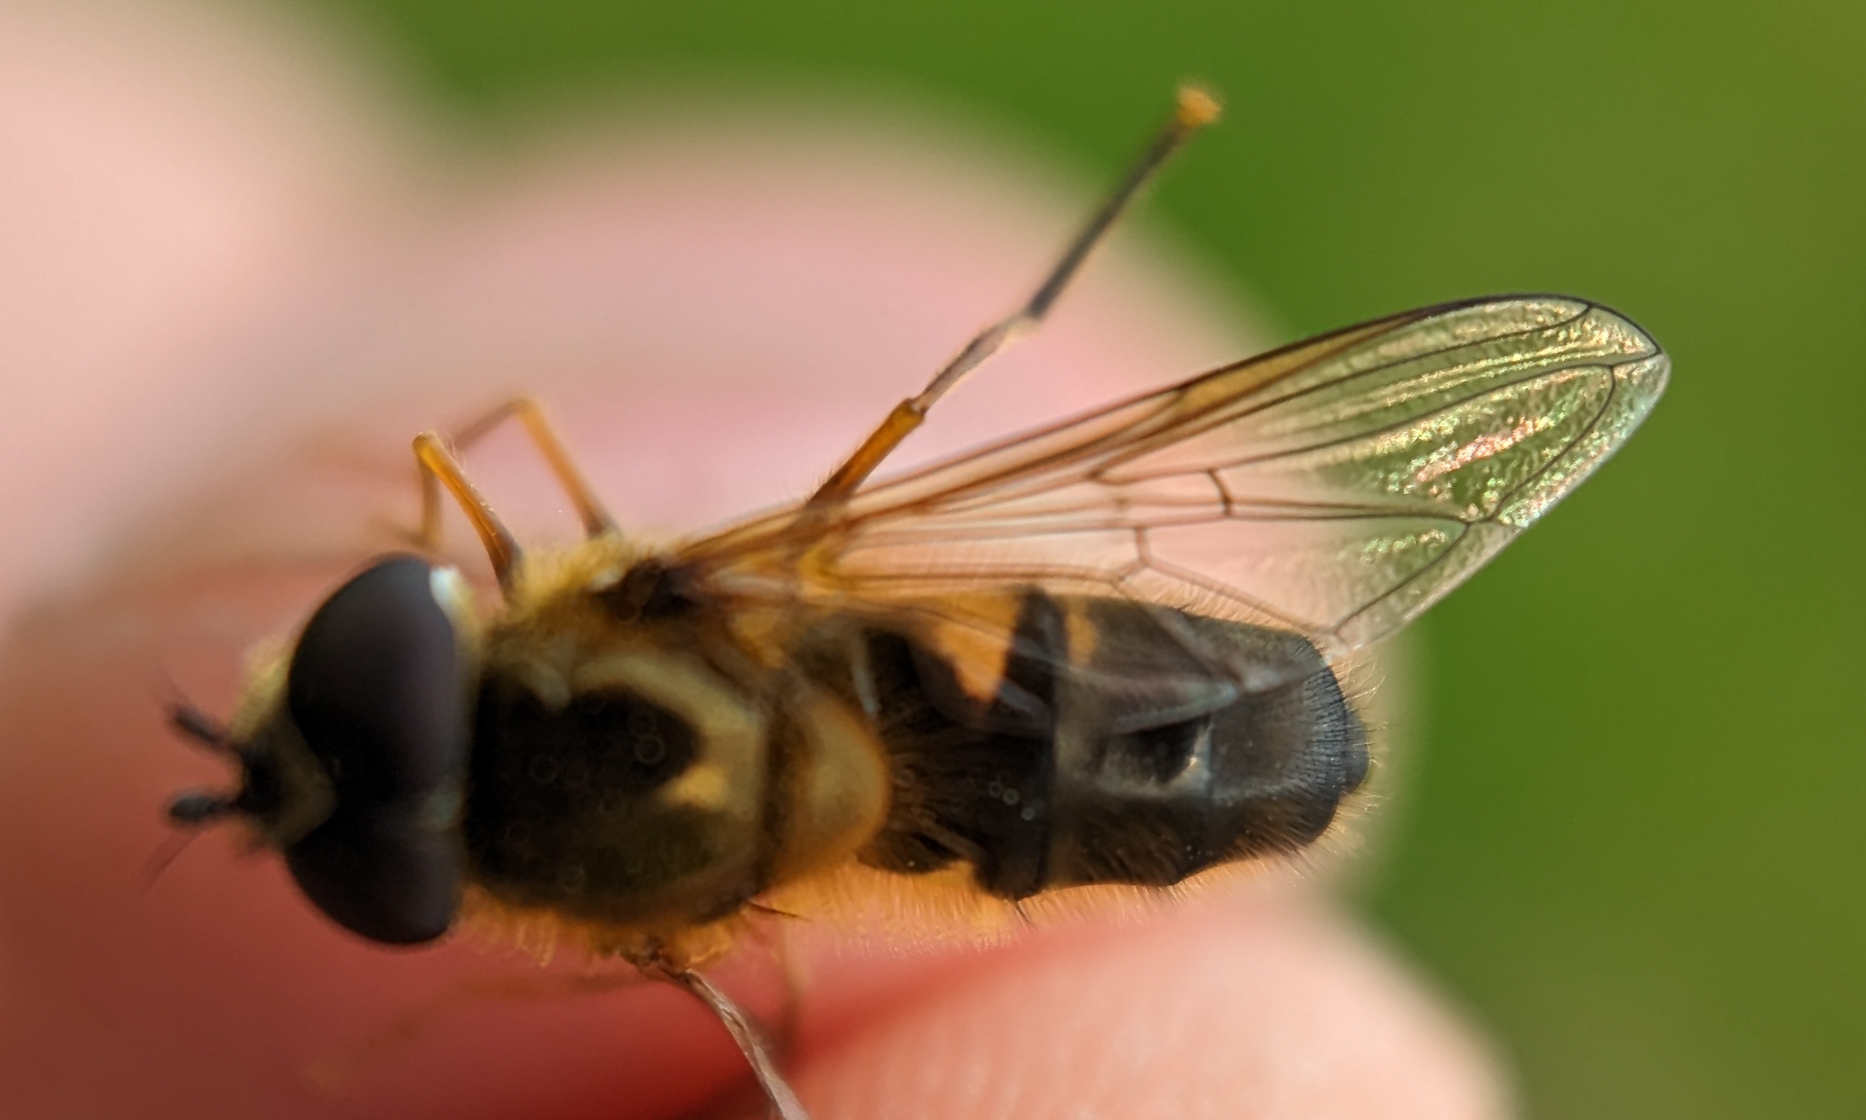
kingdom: Animalia
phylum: Arthropoda
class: Insecta
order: Diptera
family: Syrphidae
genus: Epistrophe
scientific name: Epistrophe eligans
